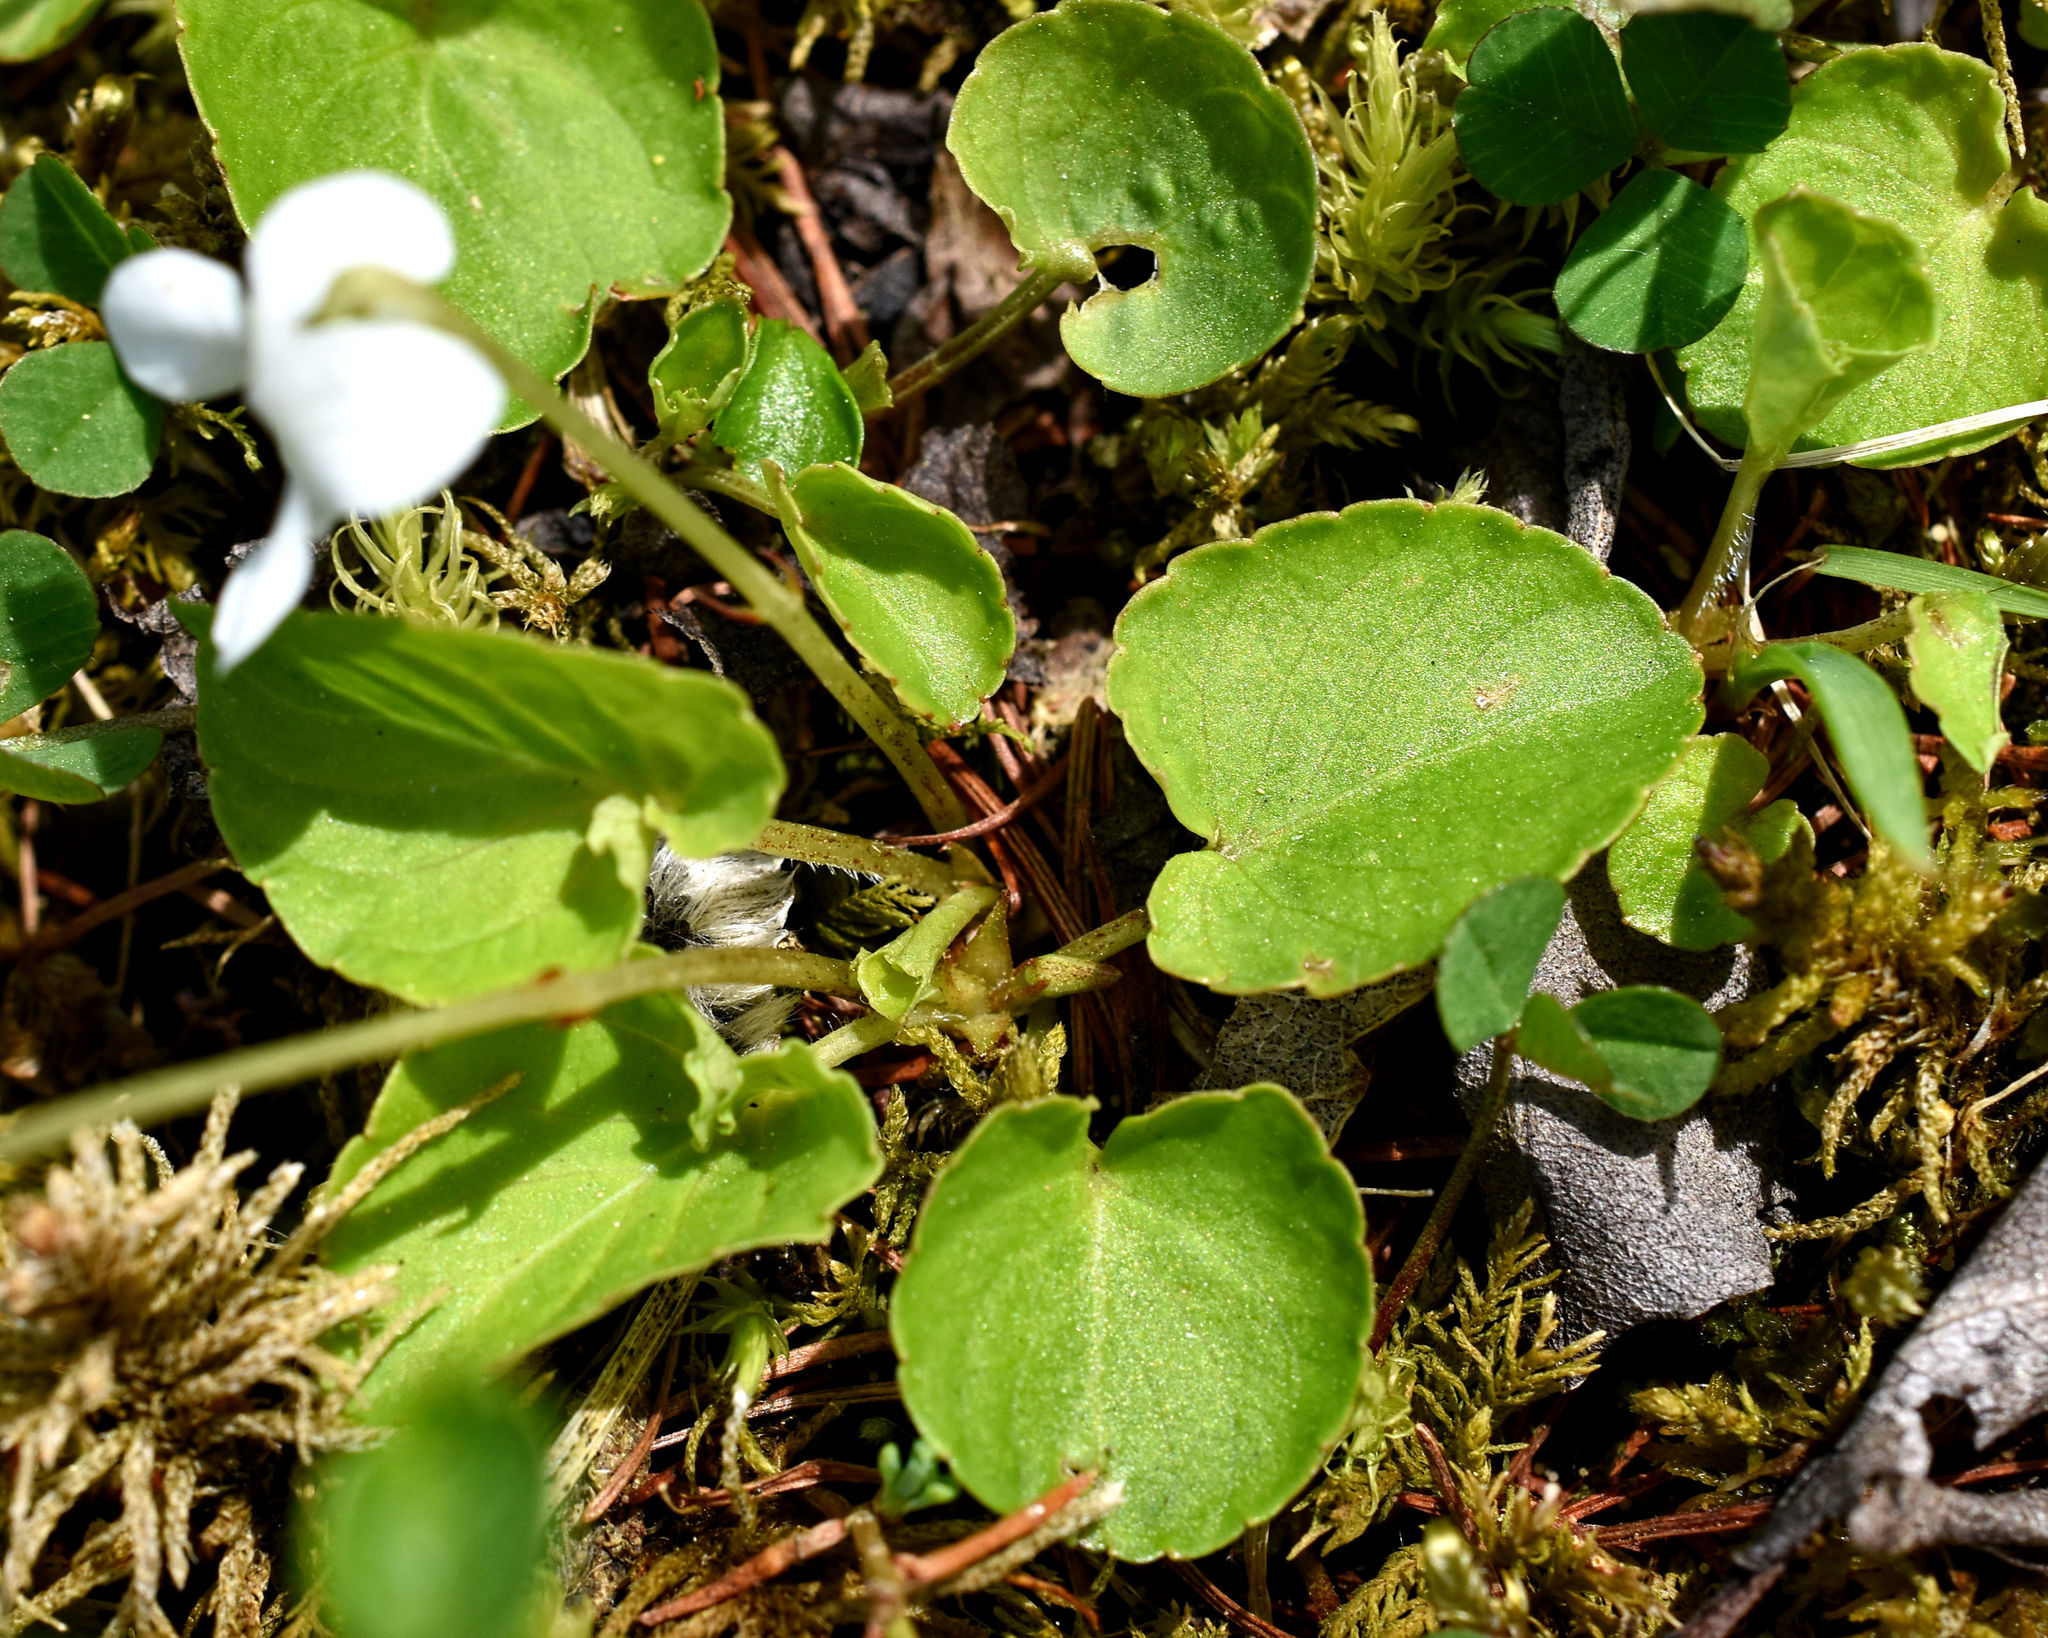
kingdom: Plantae
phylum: Tracheophyta
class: Magnoliopsida
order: Malpighiales
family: Violaceae
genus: Viola
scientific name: Viola minuscula
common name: Northern white violet
